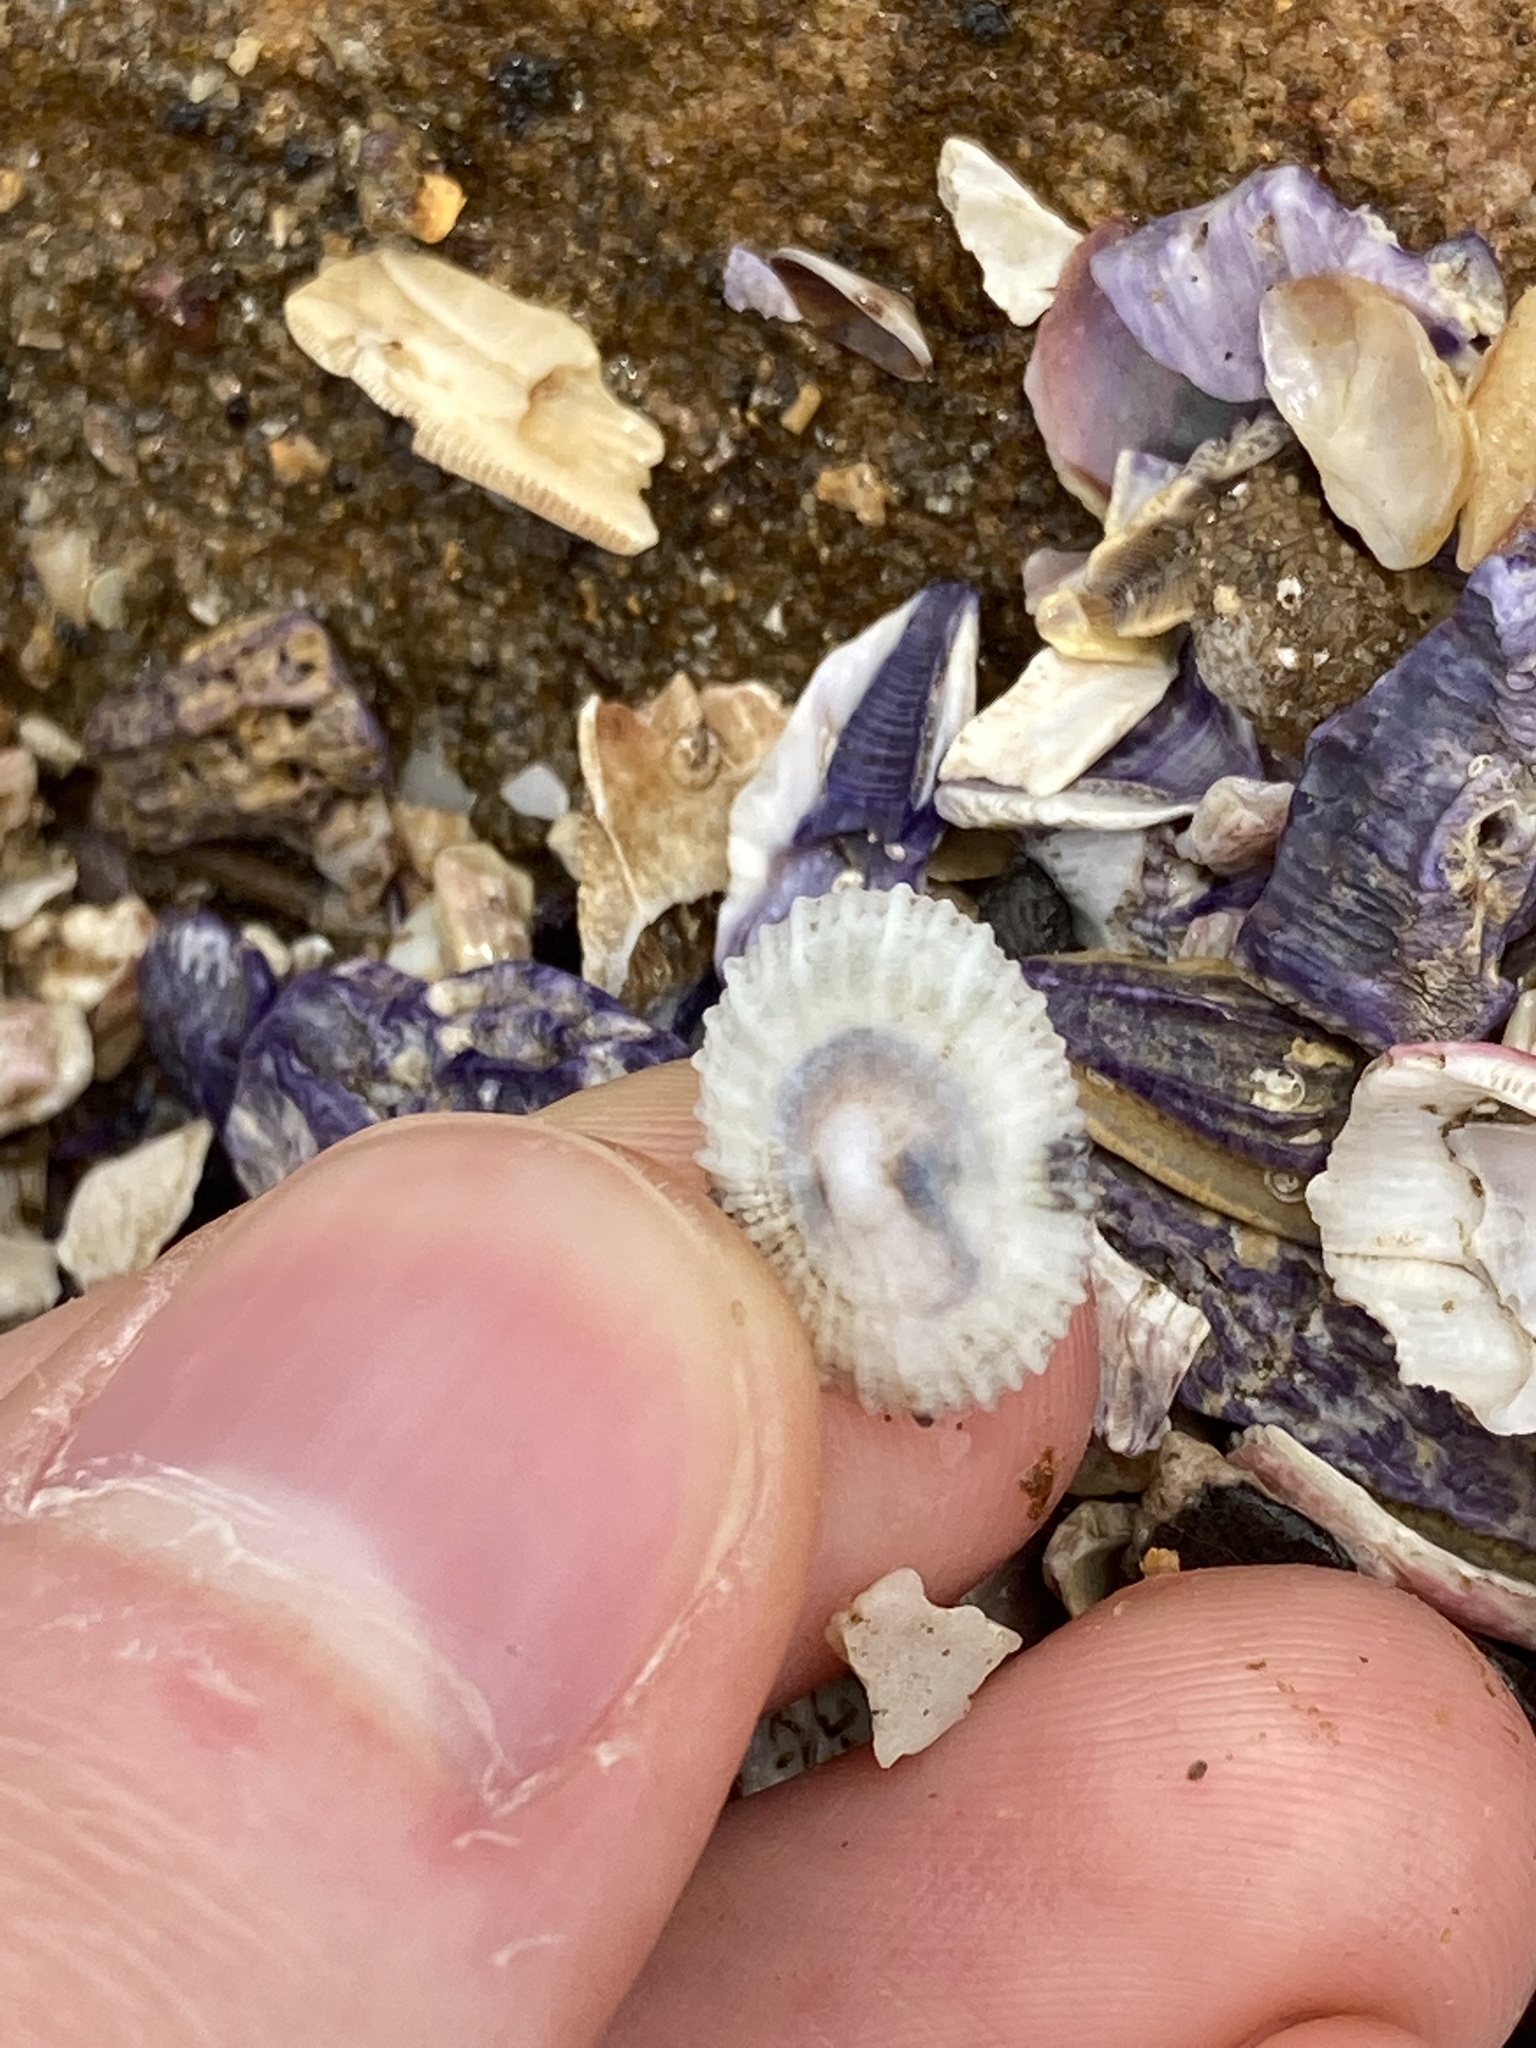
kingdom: Animalia
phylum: Mollusca
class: Gastropoda
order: Lepetellida
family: Fissurellidae
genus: Montfortula
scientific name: Montfortula rugosa
